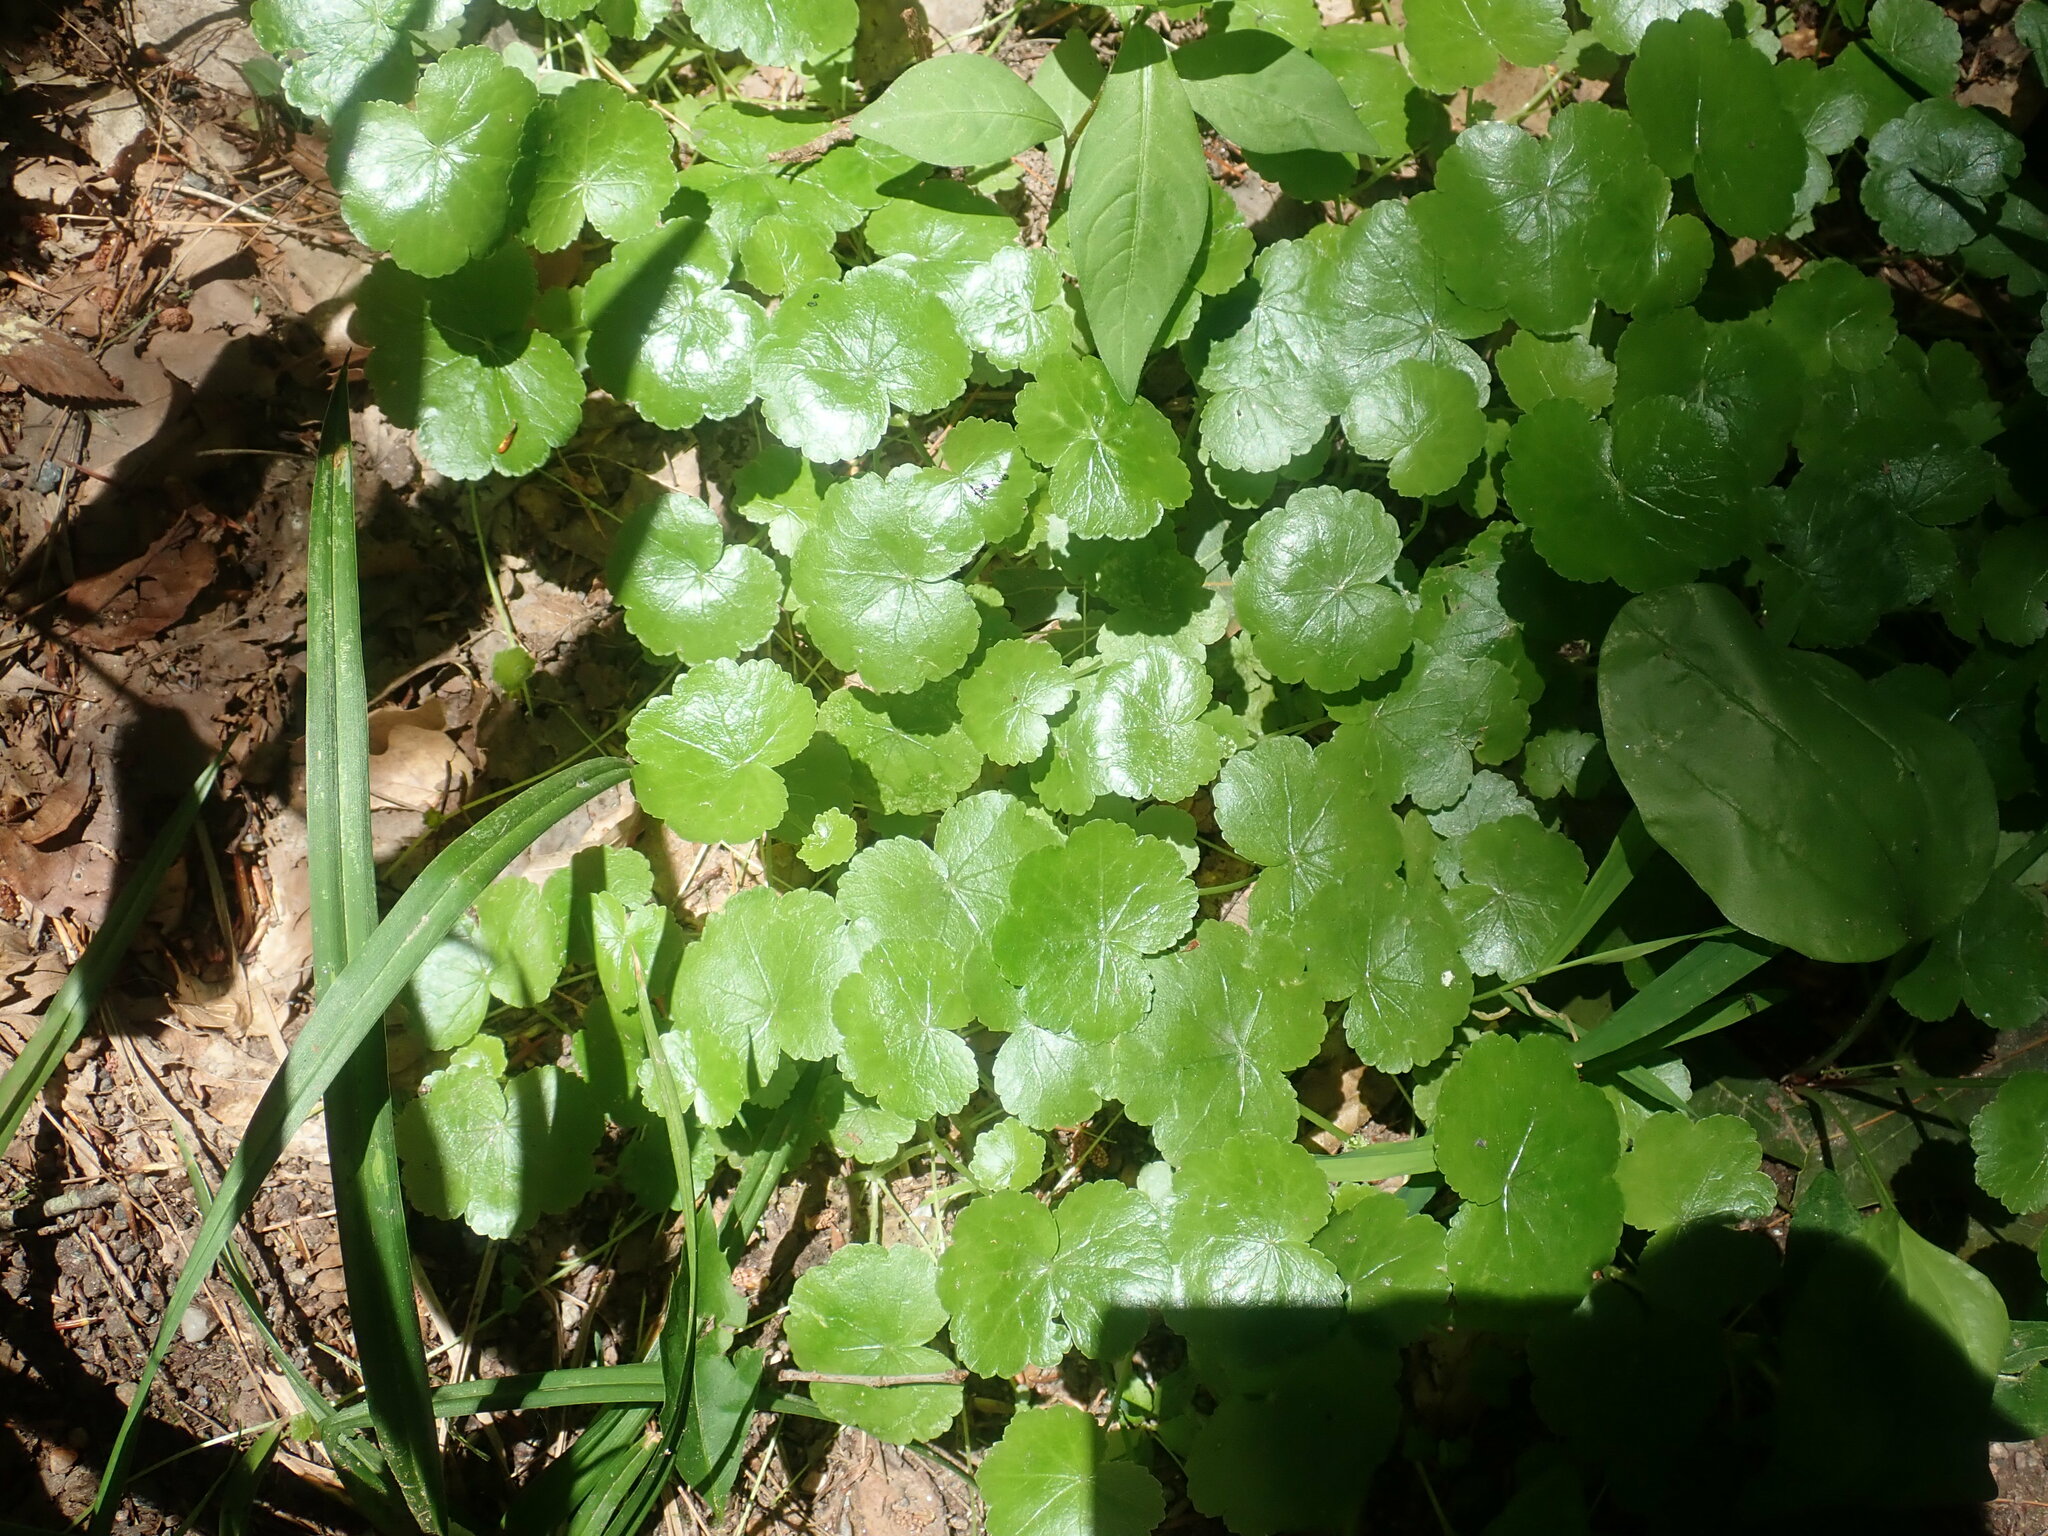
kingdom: Plantae
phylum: Tracheophyta
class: Magnoliopsida
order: Apiales
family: Araliaceae
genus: Hydrocotyle
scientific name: Hydrocotyle americana
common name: American water-pennywort
